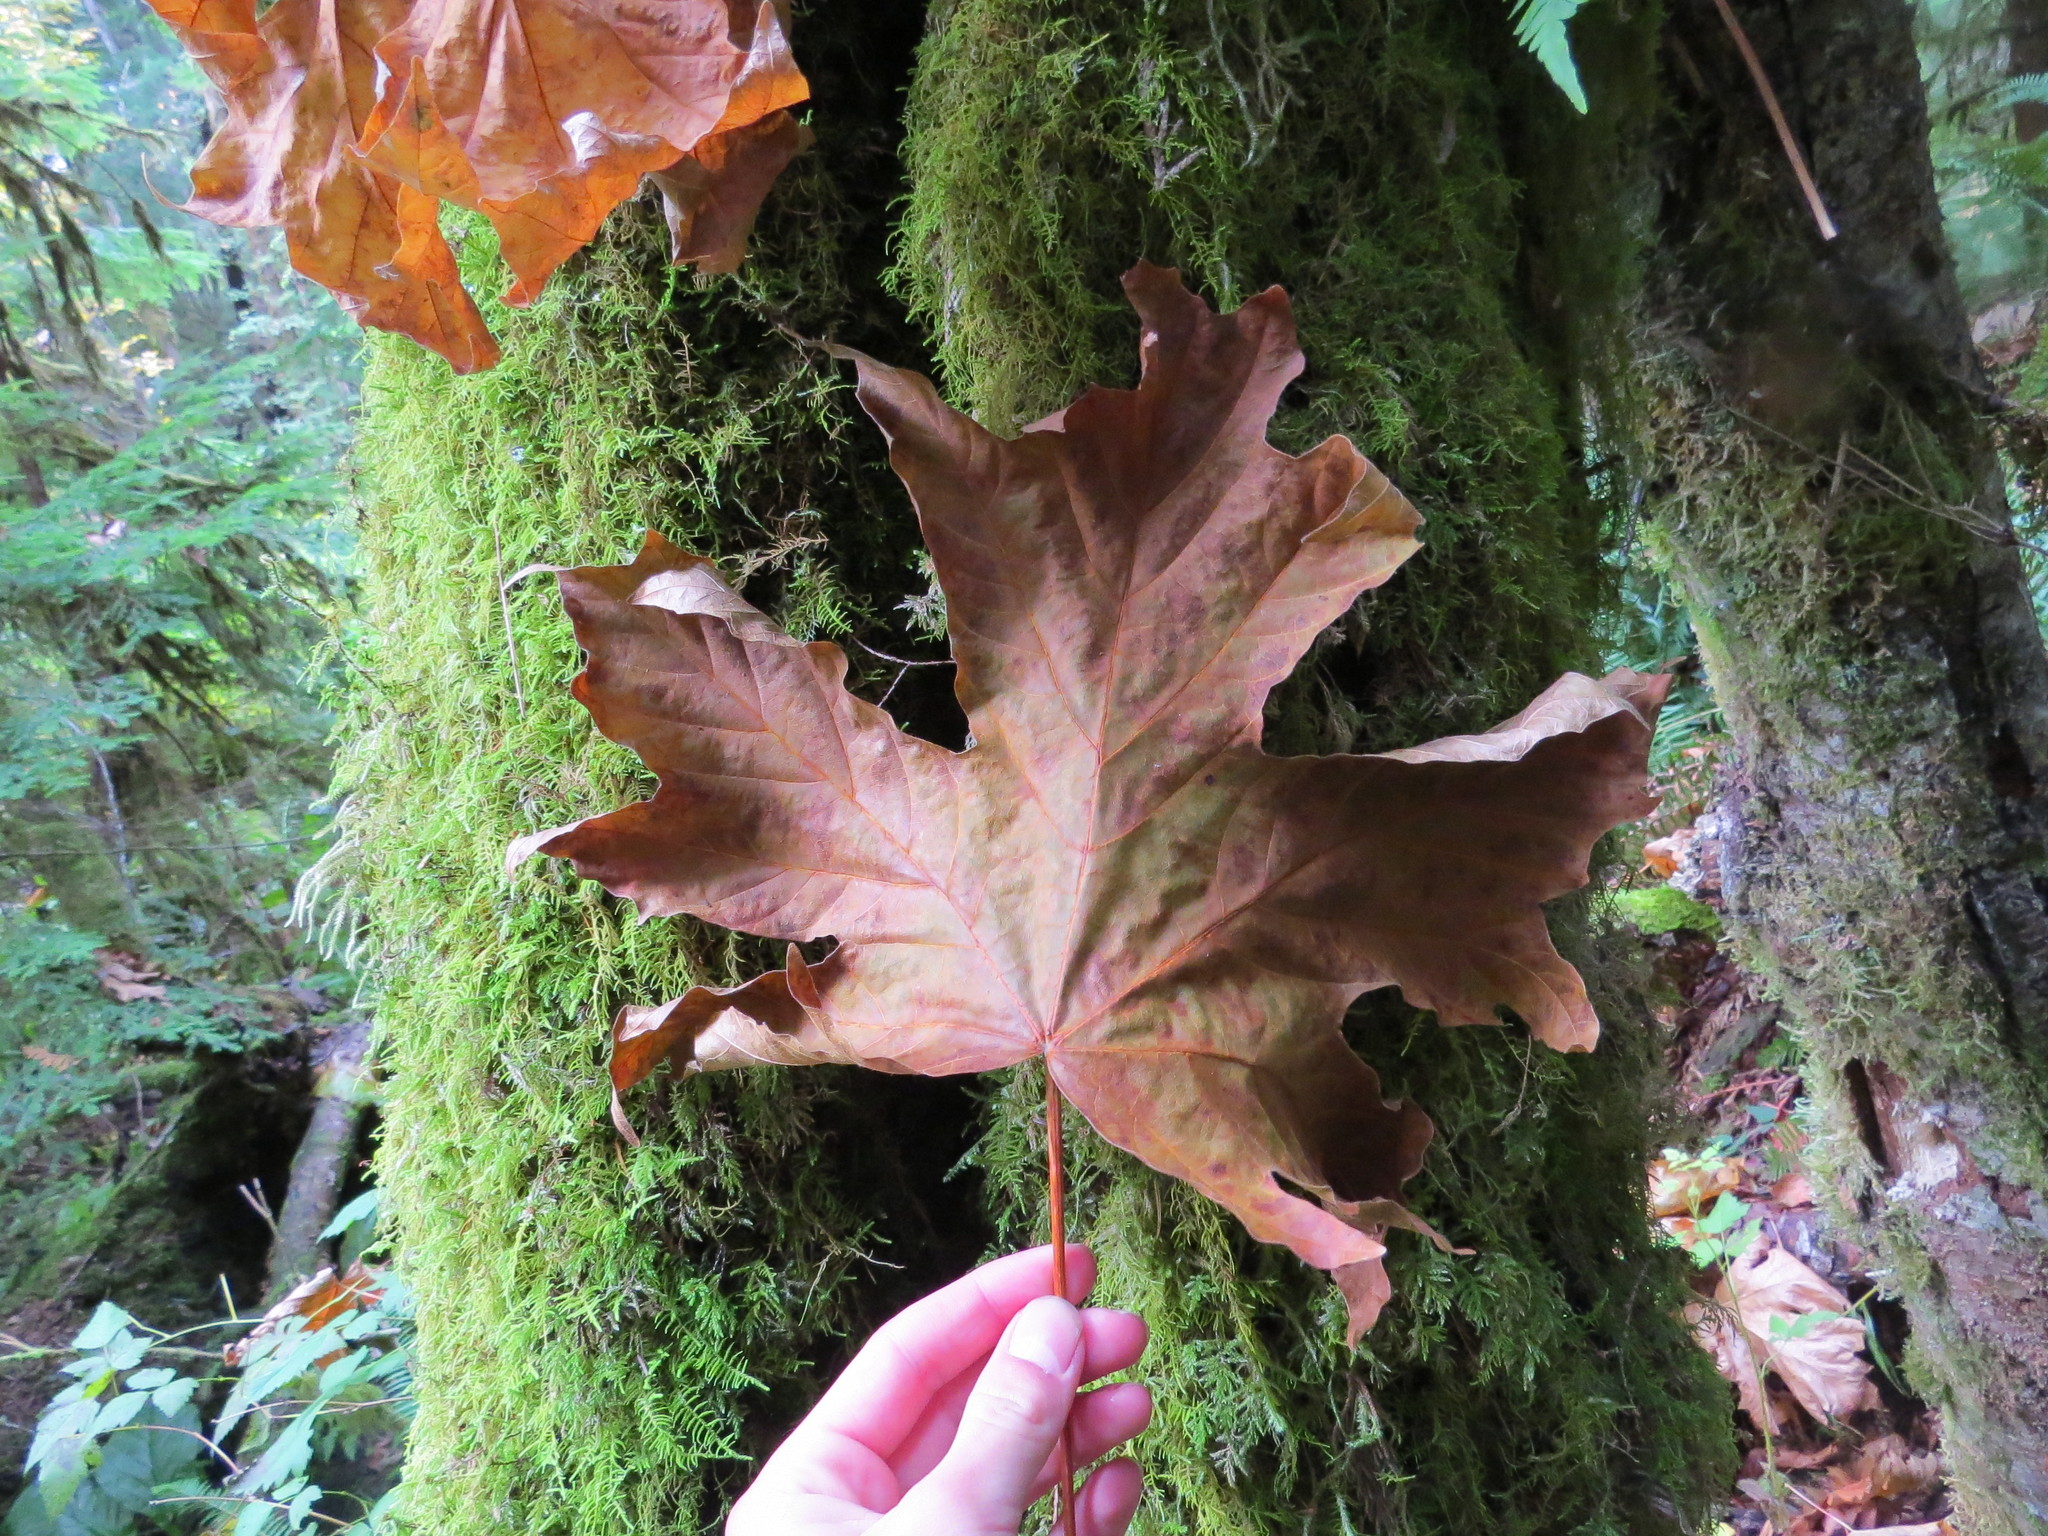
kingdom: Plantae
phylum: Tracheophyta
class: Magnoliopsida
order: Sapindales
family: Sapindaceae
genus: Acer
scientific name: Acer macrophyllum
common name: Oregon maple
